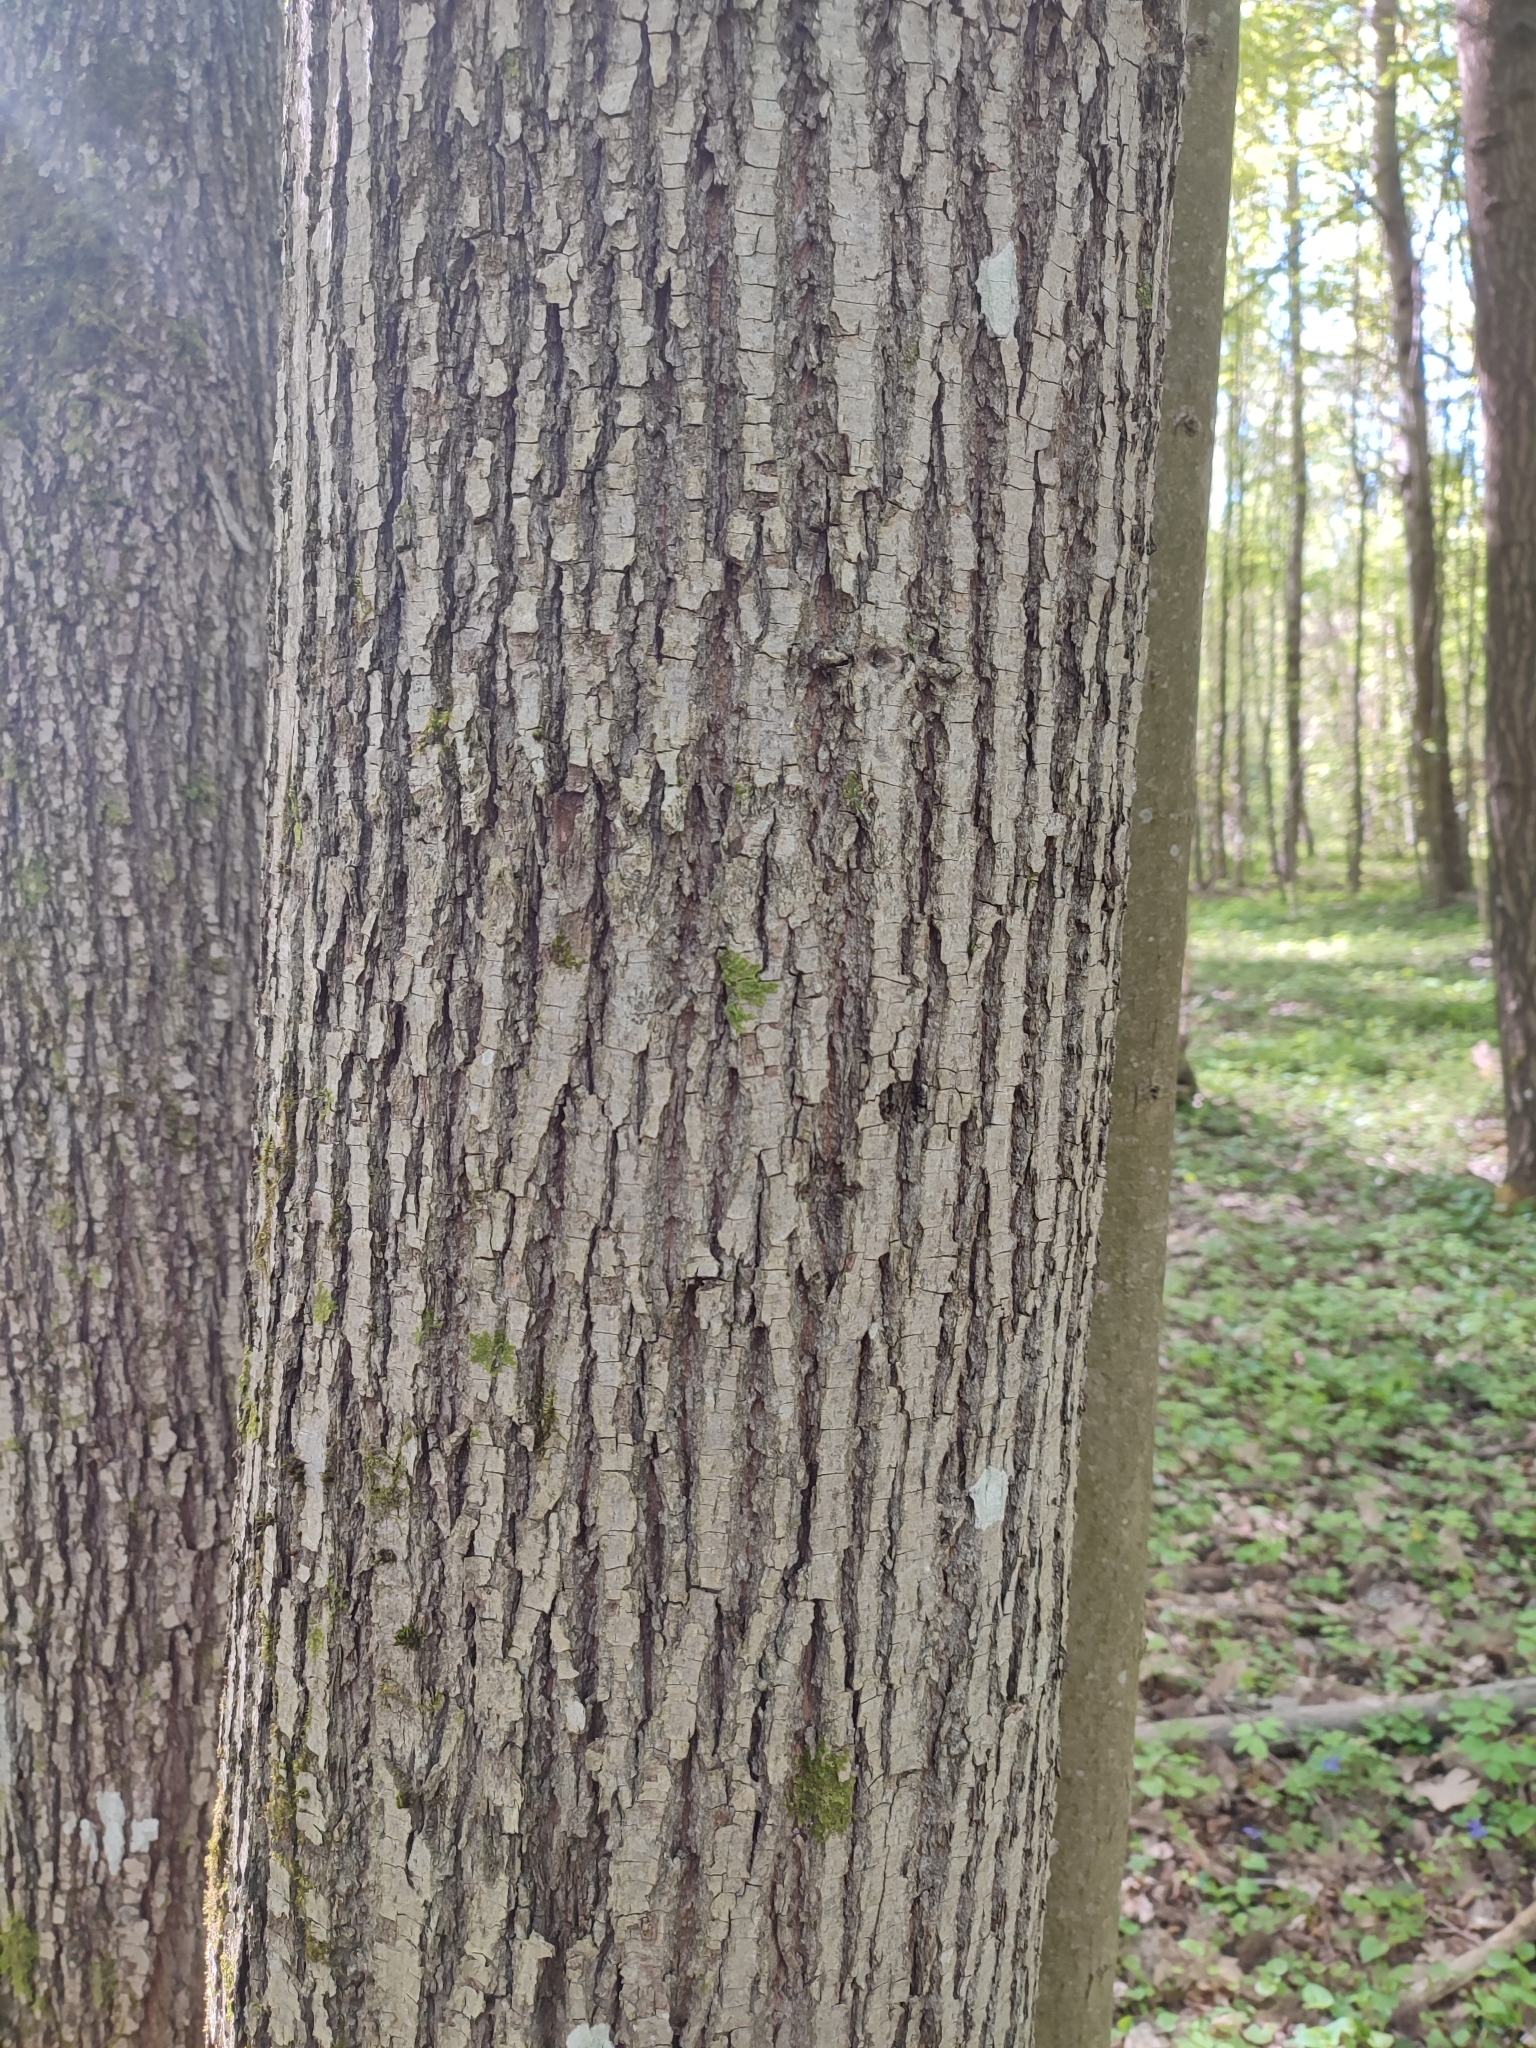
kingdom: Plantae
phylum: Tracheophyta
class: Magnoliopsida
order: Malvales
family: Malvaceae
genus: Tilia
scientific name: Tilia cordata
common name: Small-leaved lime
